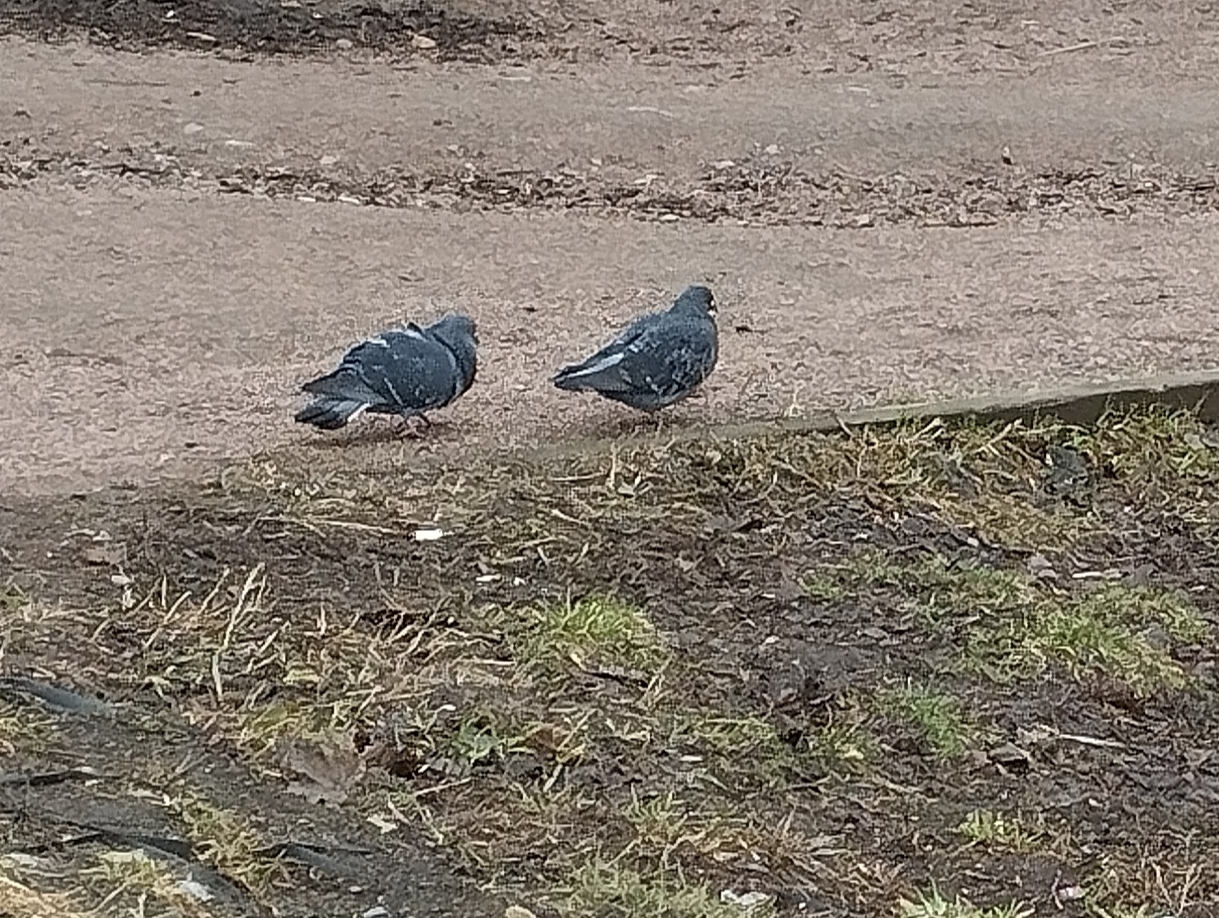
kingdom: Animalia
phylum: Chordata
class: Aves
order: Columbiformes
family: Columbidae
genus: Columba
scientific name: Columba livia
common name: Rock pigeon
